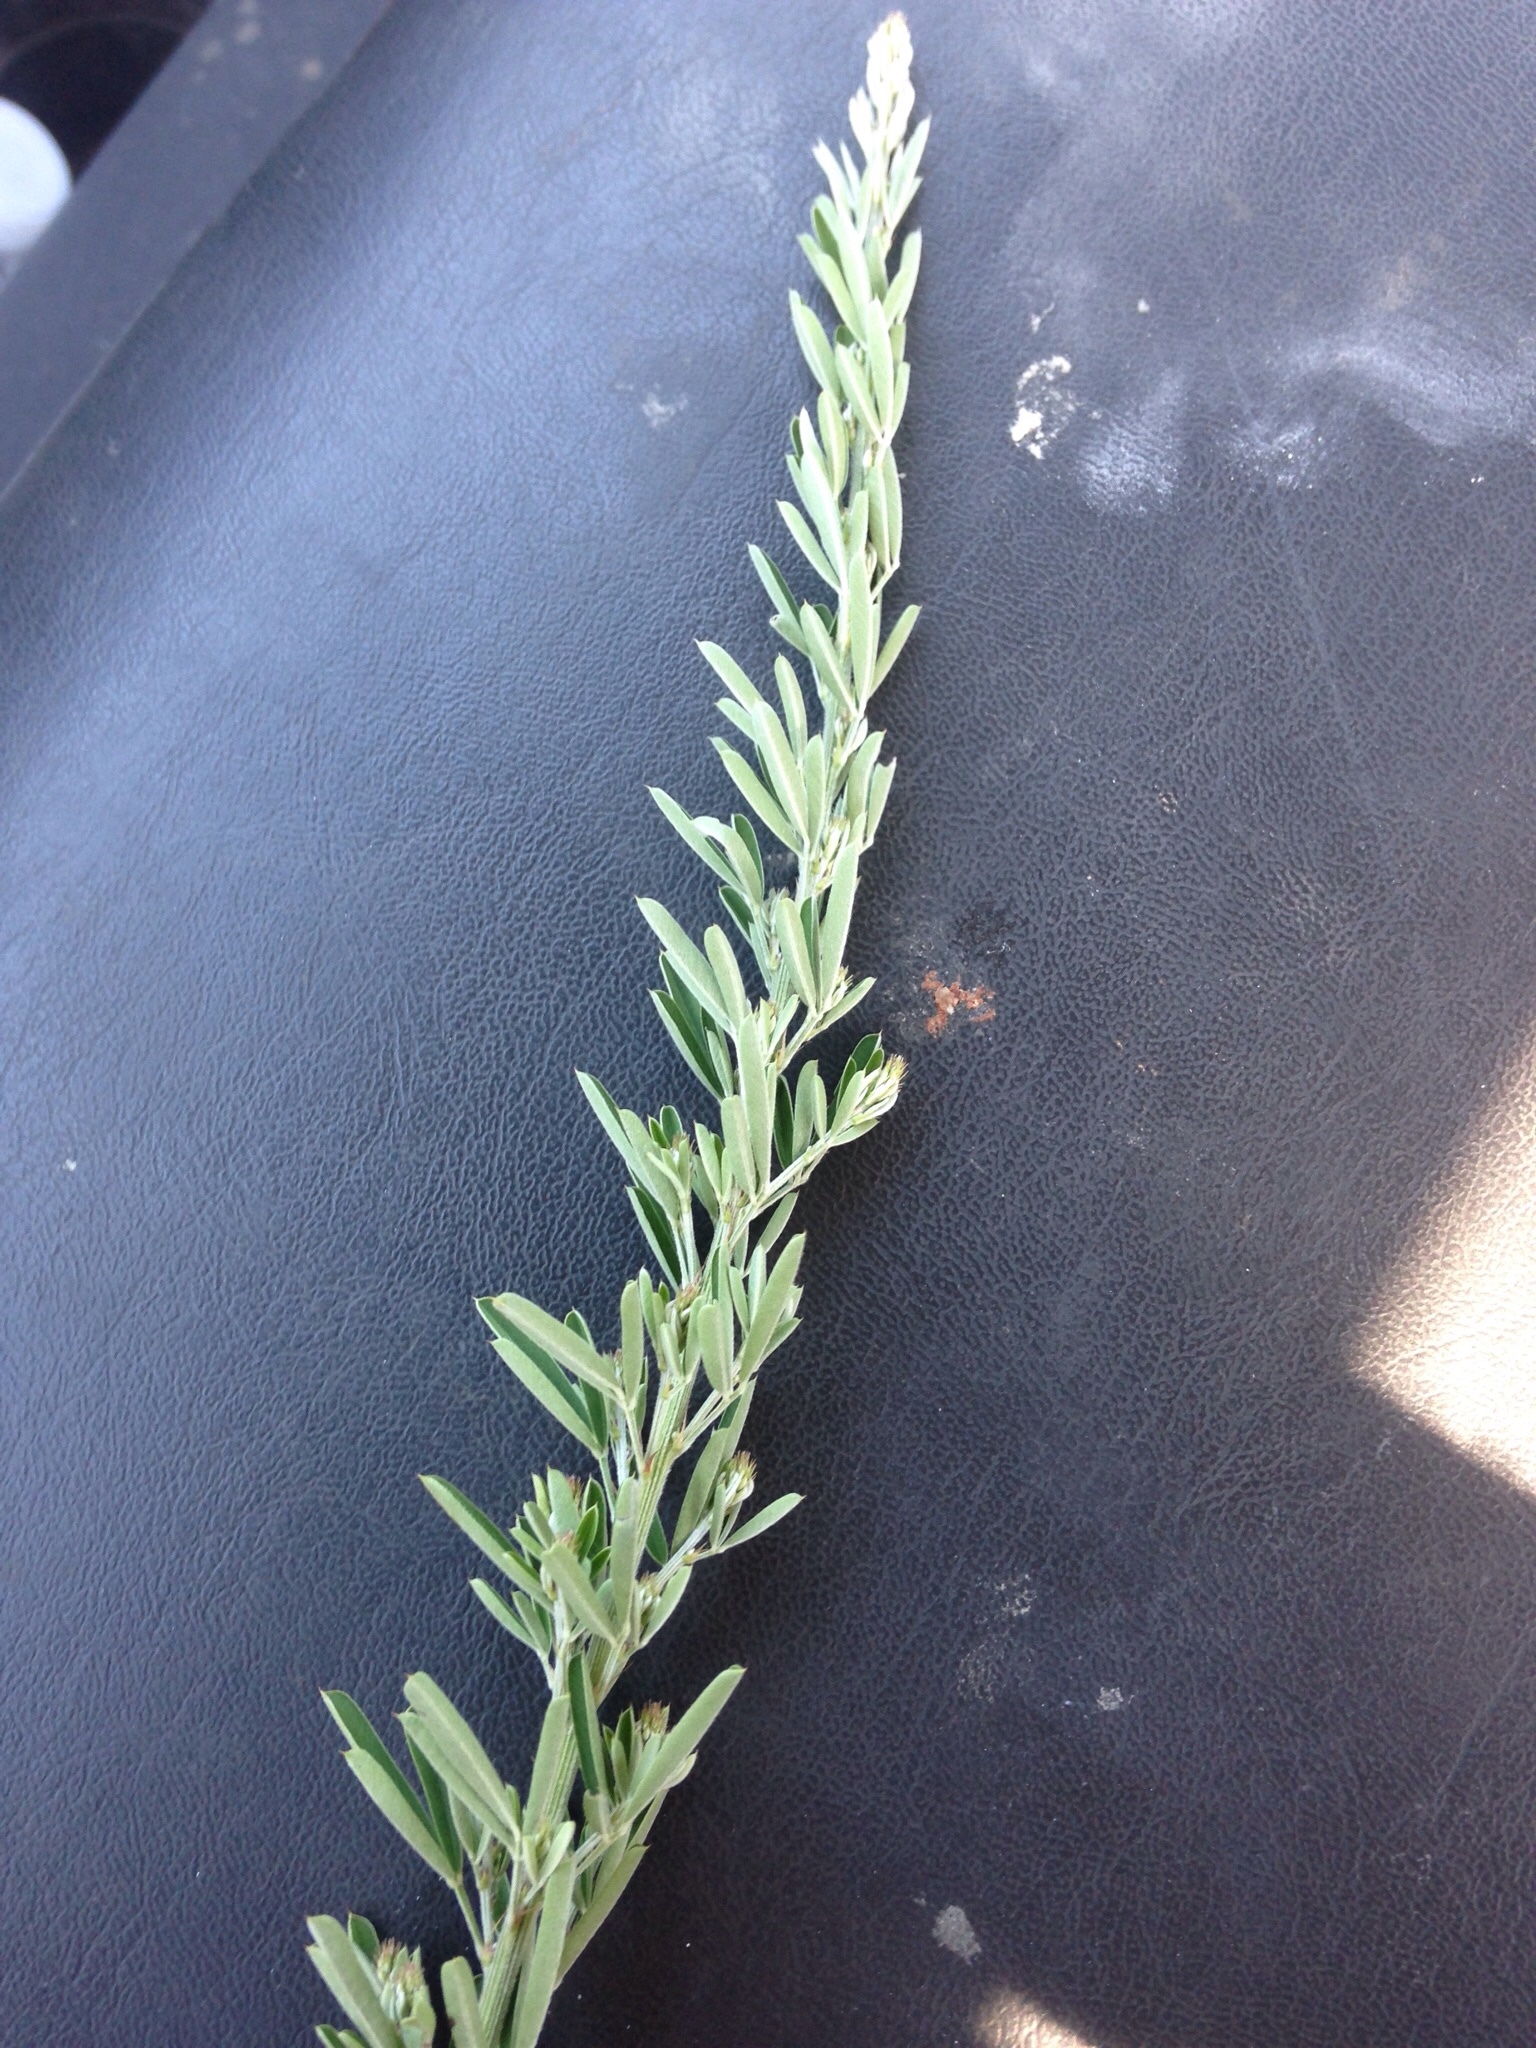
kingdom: Plantae
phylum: Tracheophyta
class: Magnoliopsida
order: Fabales
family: Fabaceae
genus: Lespedeza
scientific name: Lespedeza cuneata
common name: Chinese bush-clover
